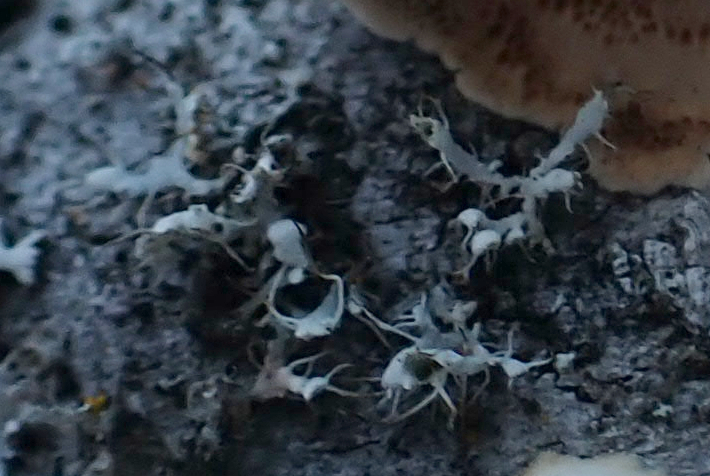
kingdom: Fungi
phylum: Ascomycota
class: Lecanoromycetes
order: Caliciales
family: Physciaceae
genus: Physcia
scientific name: Physcia adscendens
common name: Hooded rosette lichen
